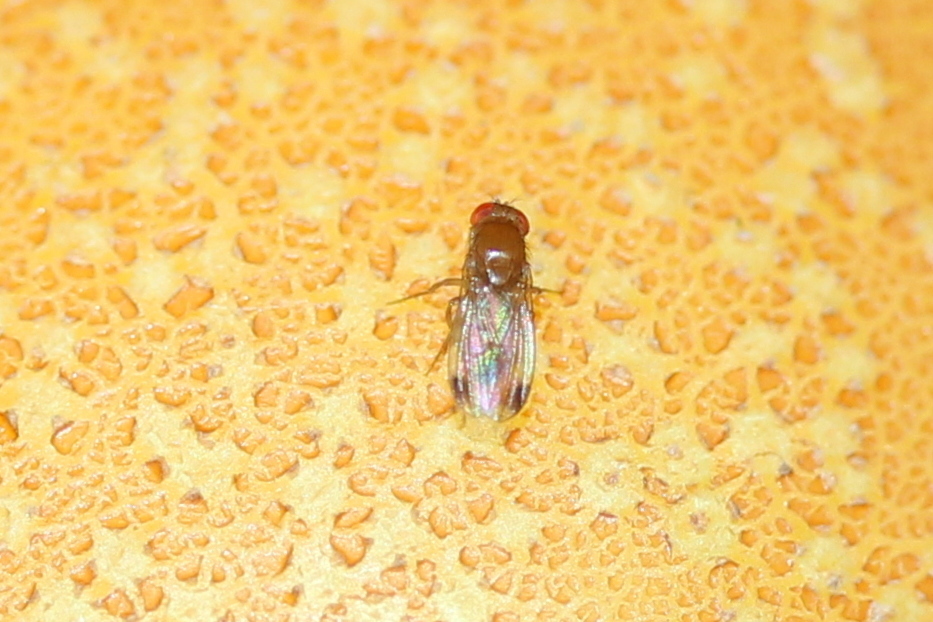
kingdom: Animalia
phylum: Arthropoda
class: Insecta
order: Diptera
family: Drosophilidae
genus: Drosophila
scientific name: Drosophila suzukii
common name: Spotted-wing drosophila
